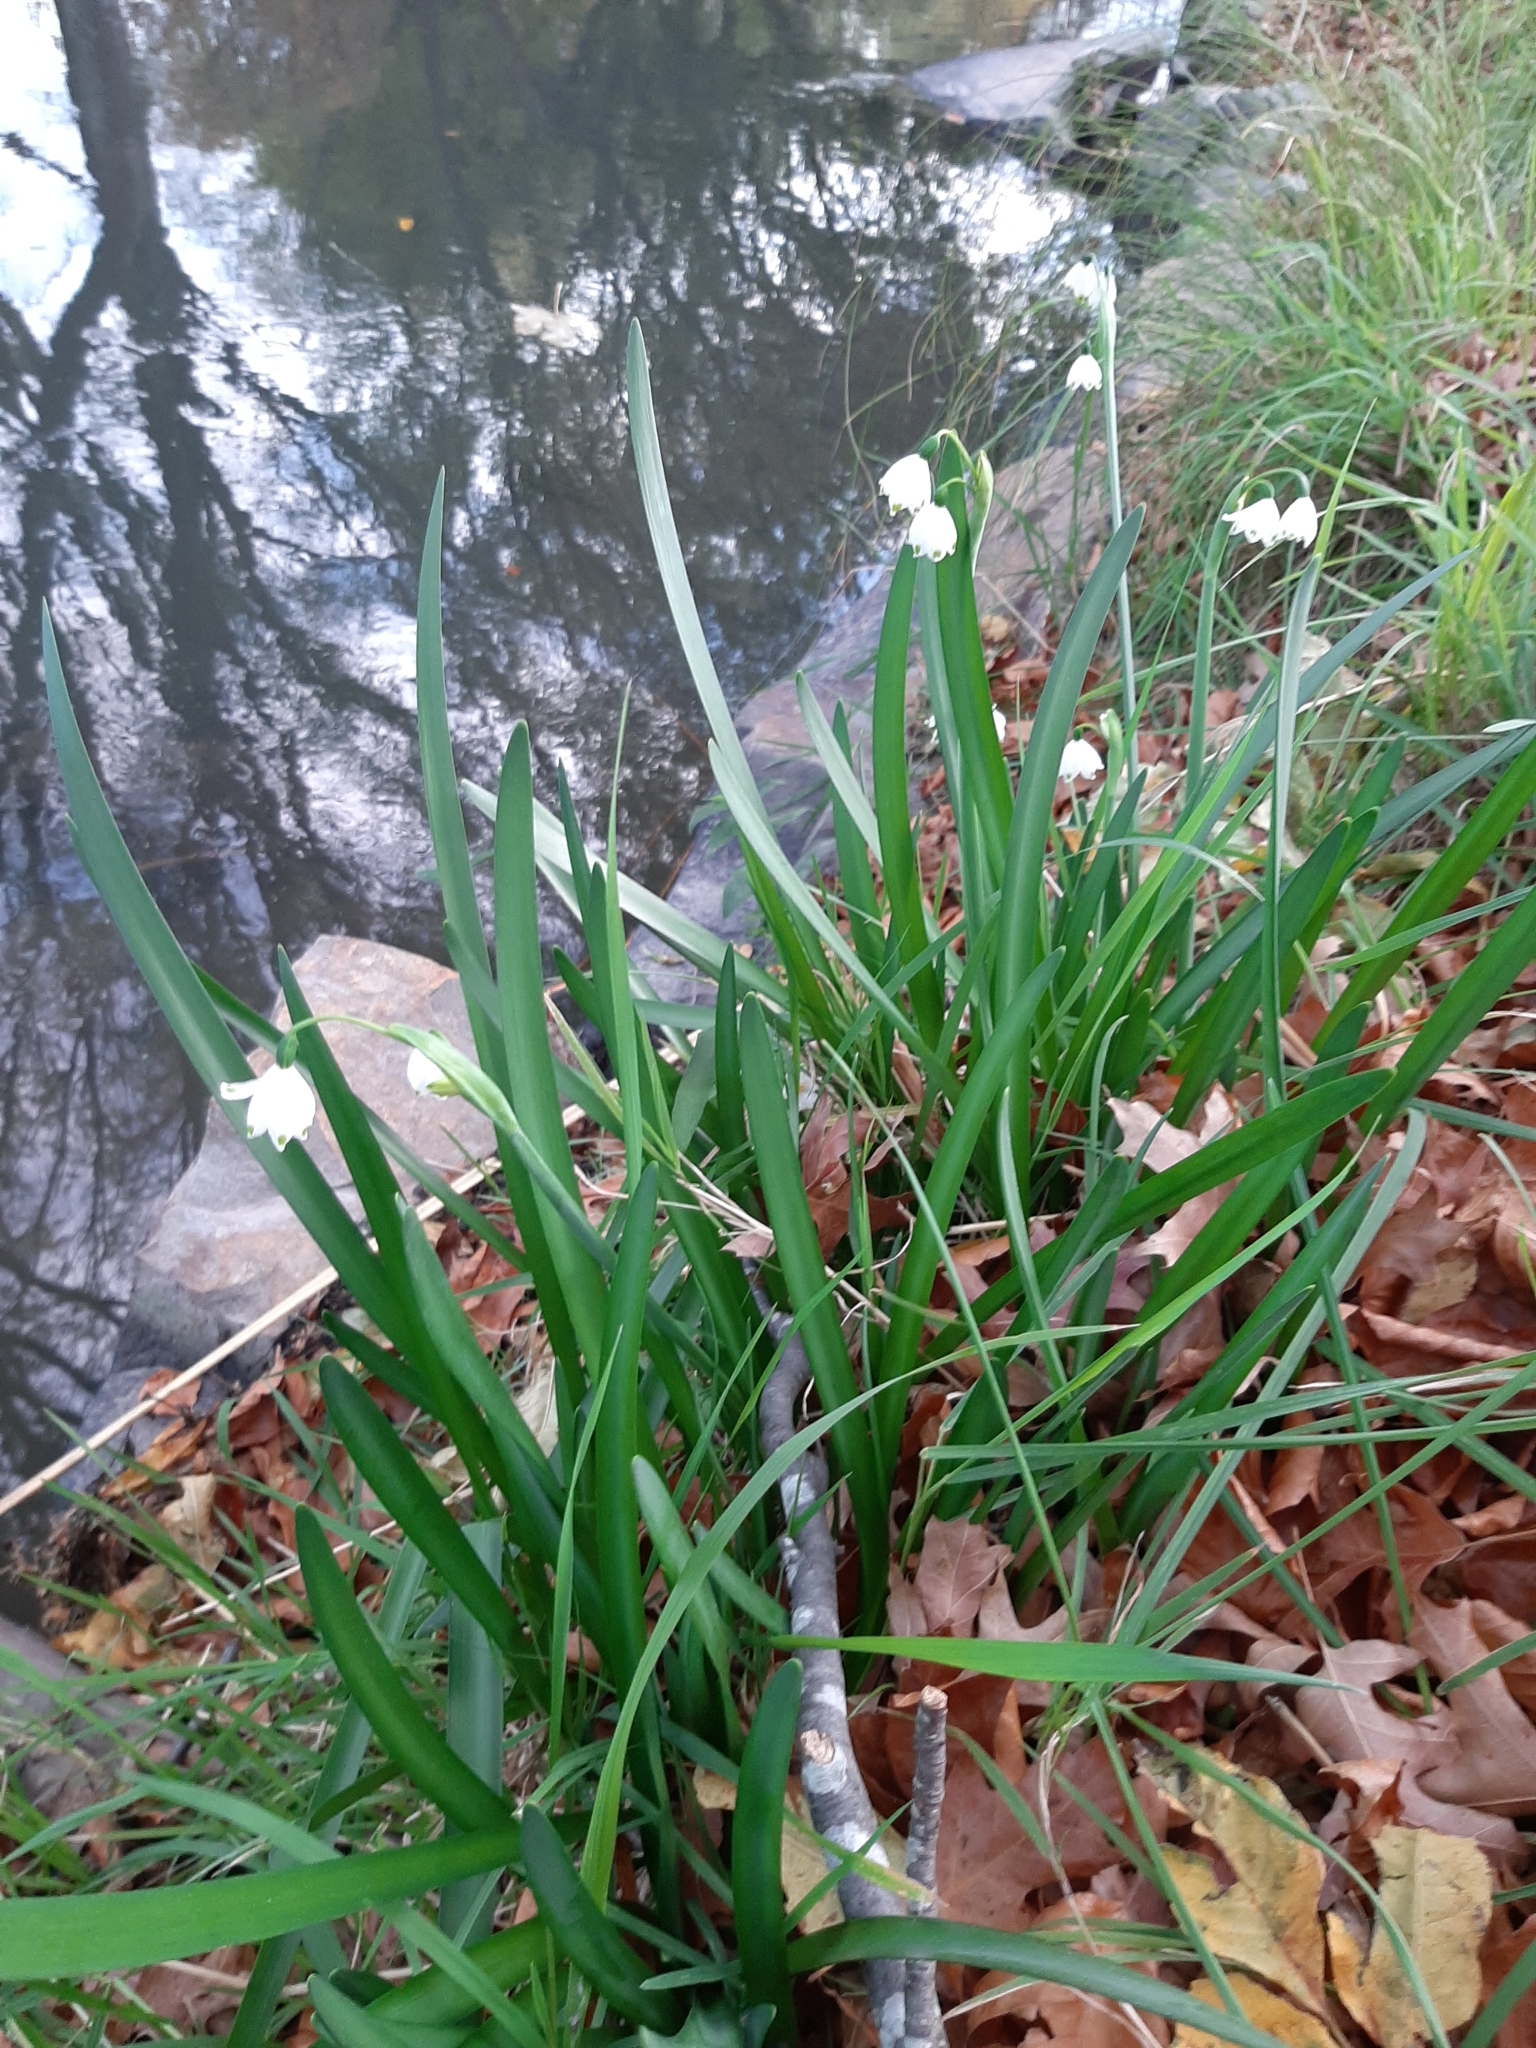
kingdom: Plantae
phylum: Tracheophyta
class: Liliopsida
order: Asparagales
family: Amaryllidaceae
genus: Leucojum
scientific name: Leucojum aestivum
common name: Summer snowflake
